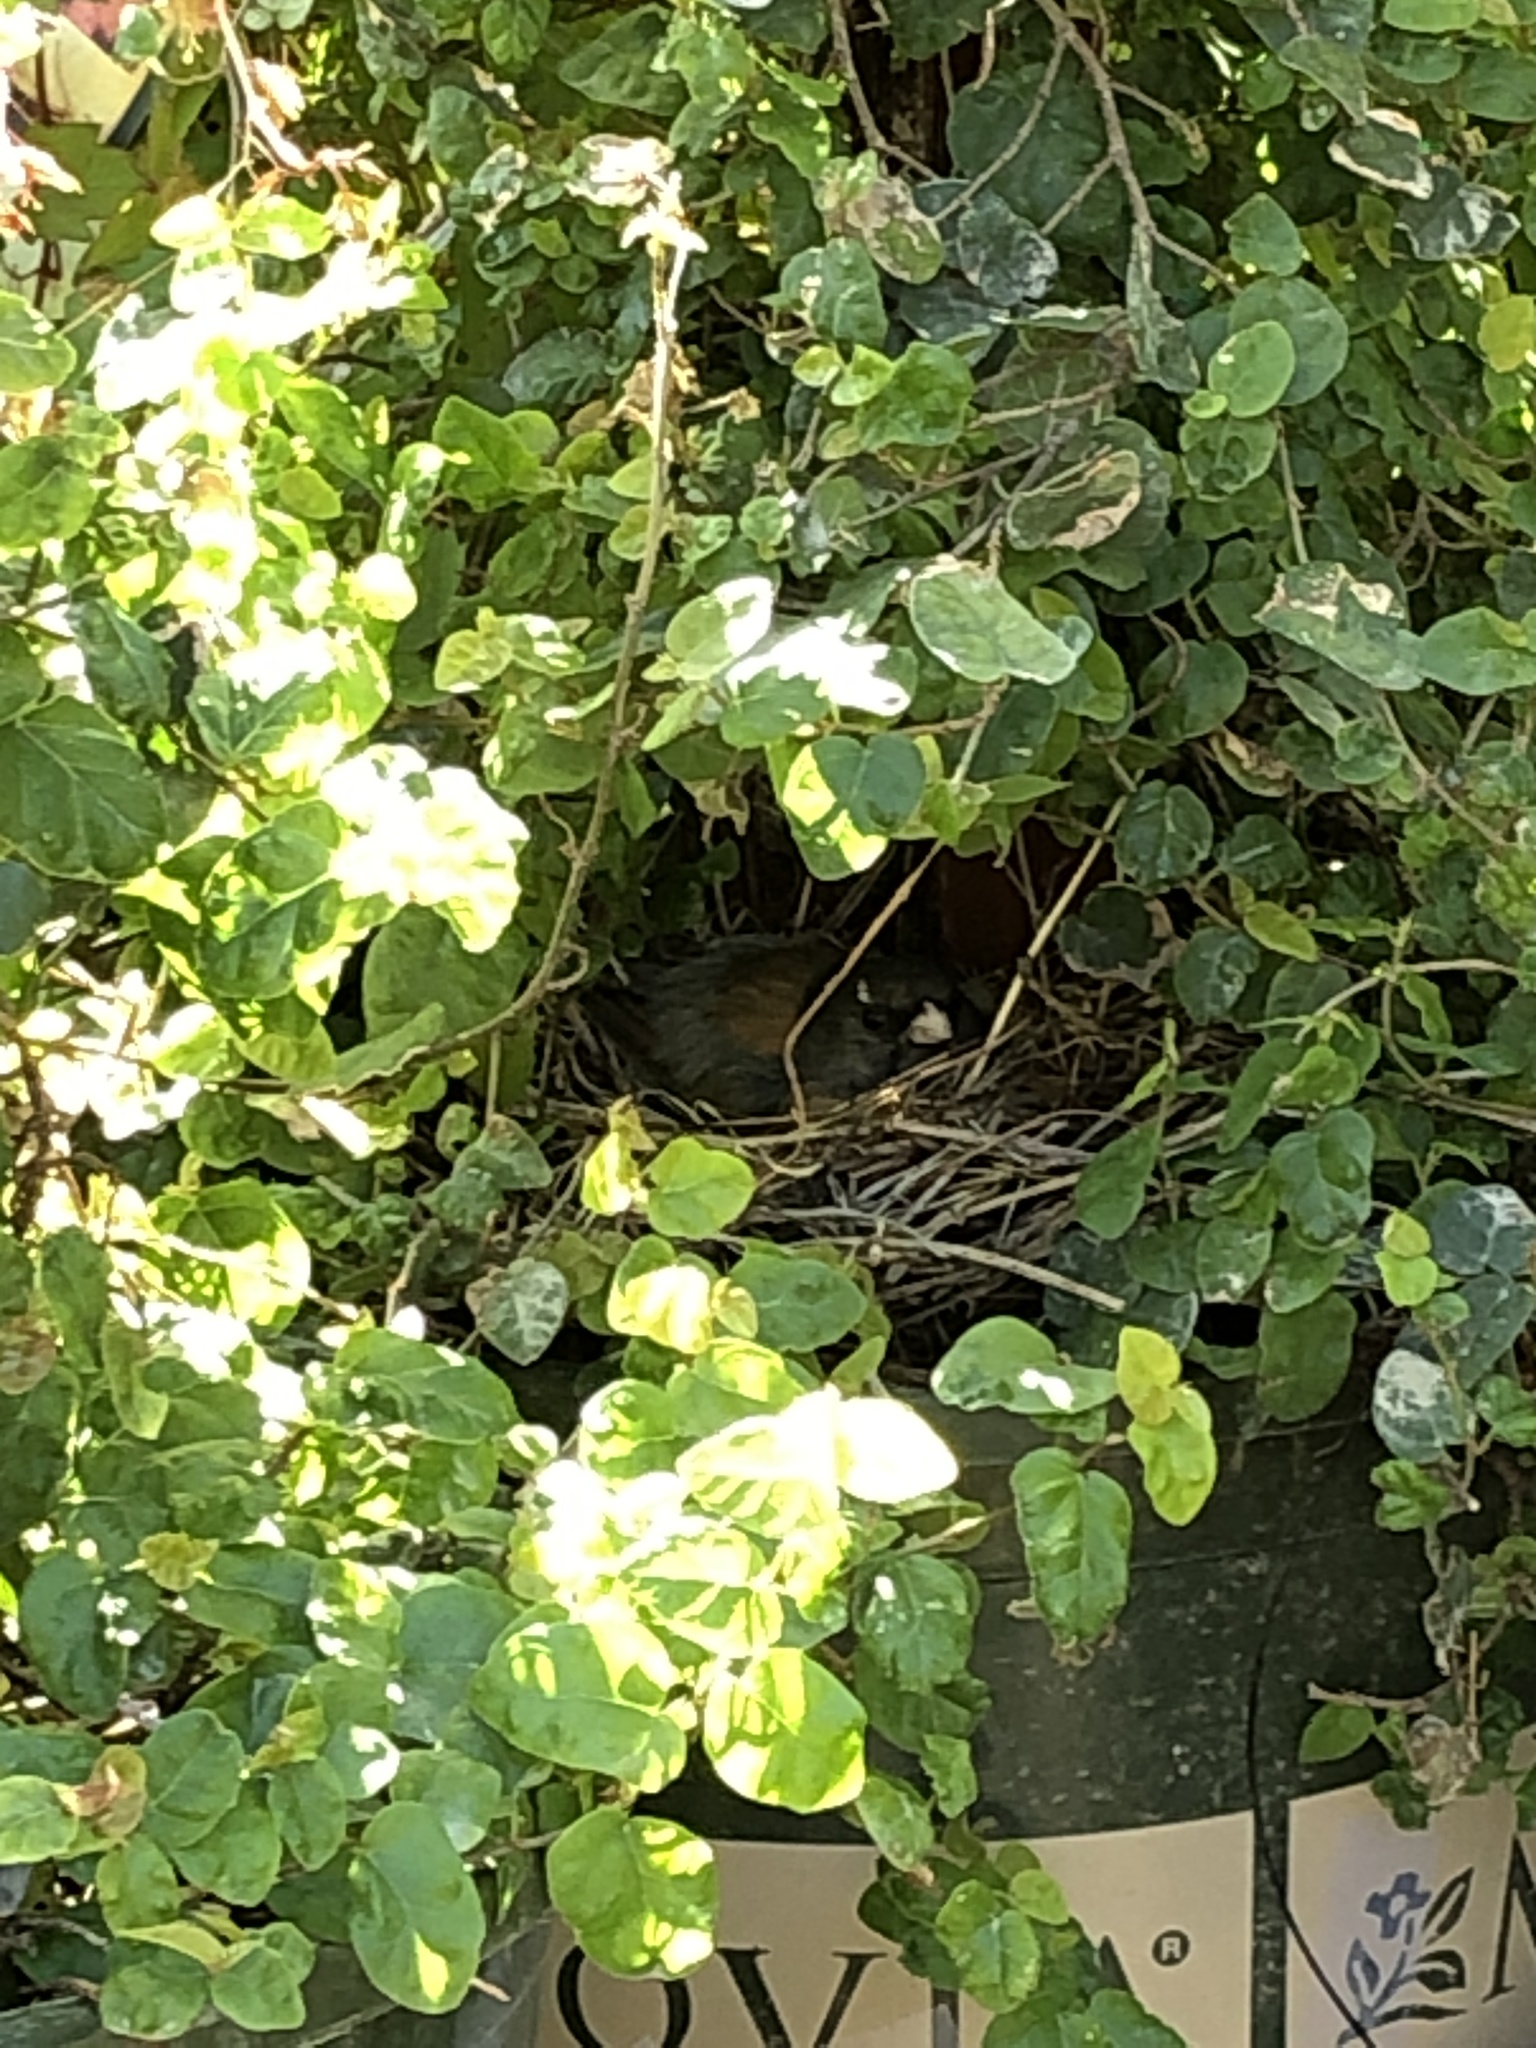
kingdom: Animalia
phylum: Chordata
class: Aves
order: Passeriformes
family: Passerellidae
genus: Junco
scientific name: Junco hyemalis
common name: Dark-eyed junco
